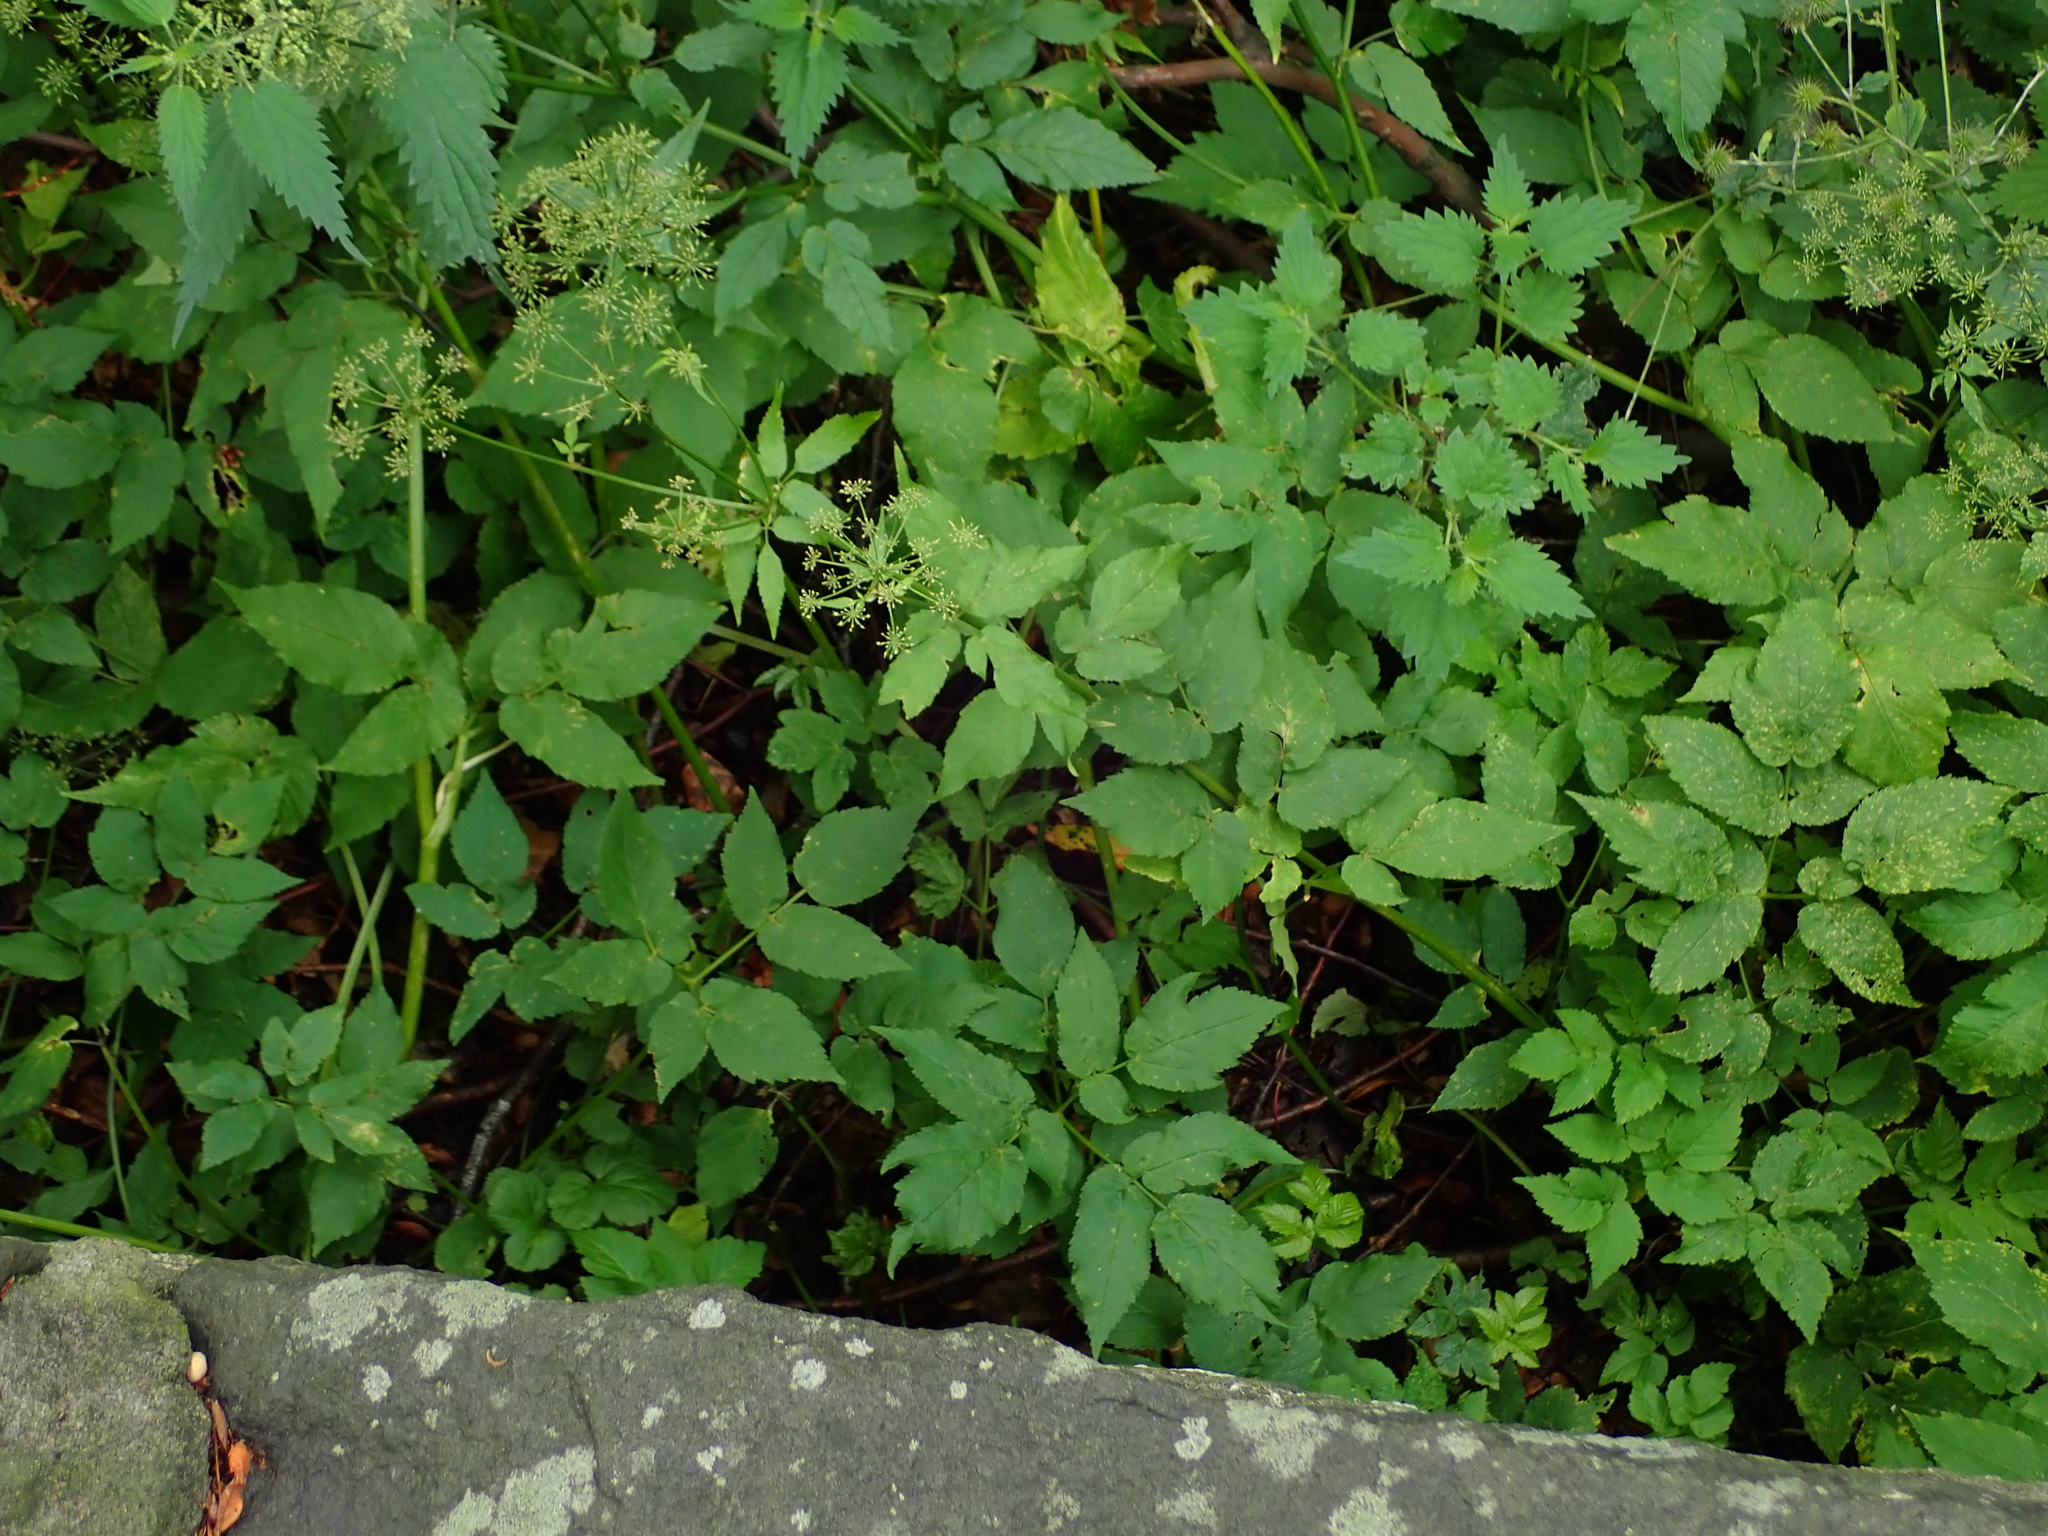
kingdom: Plantae
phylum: Tracheophyta
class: Magnoliopsida
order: Apiales
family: Apiaceae
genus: Aegopodium
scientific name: Aegopodium podagraria
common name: Ground-elder
